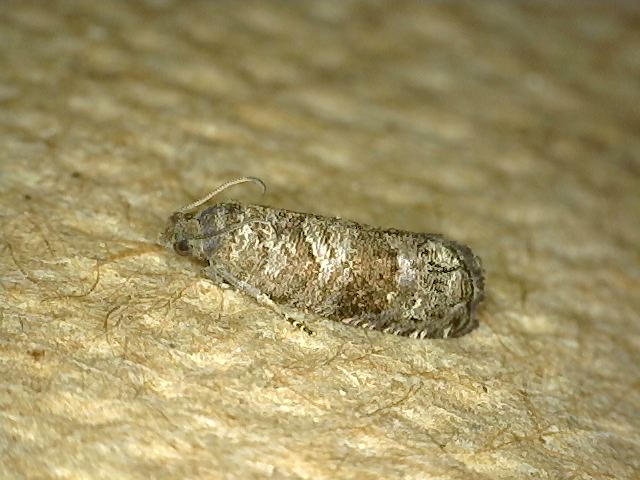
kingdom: Animalia
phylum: Arthropoda
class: Insecta
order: Lepidoptera
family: Noctuidae
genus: Aspila
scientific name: Aspila
